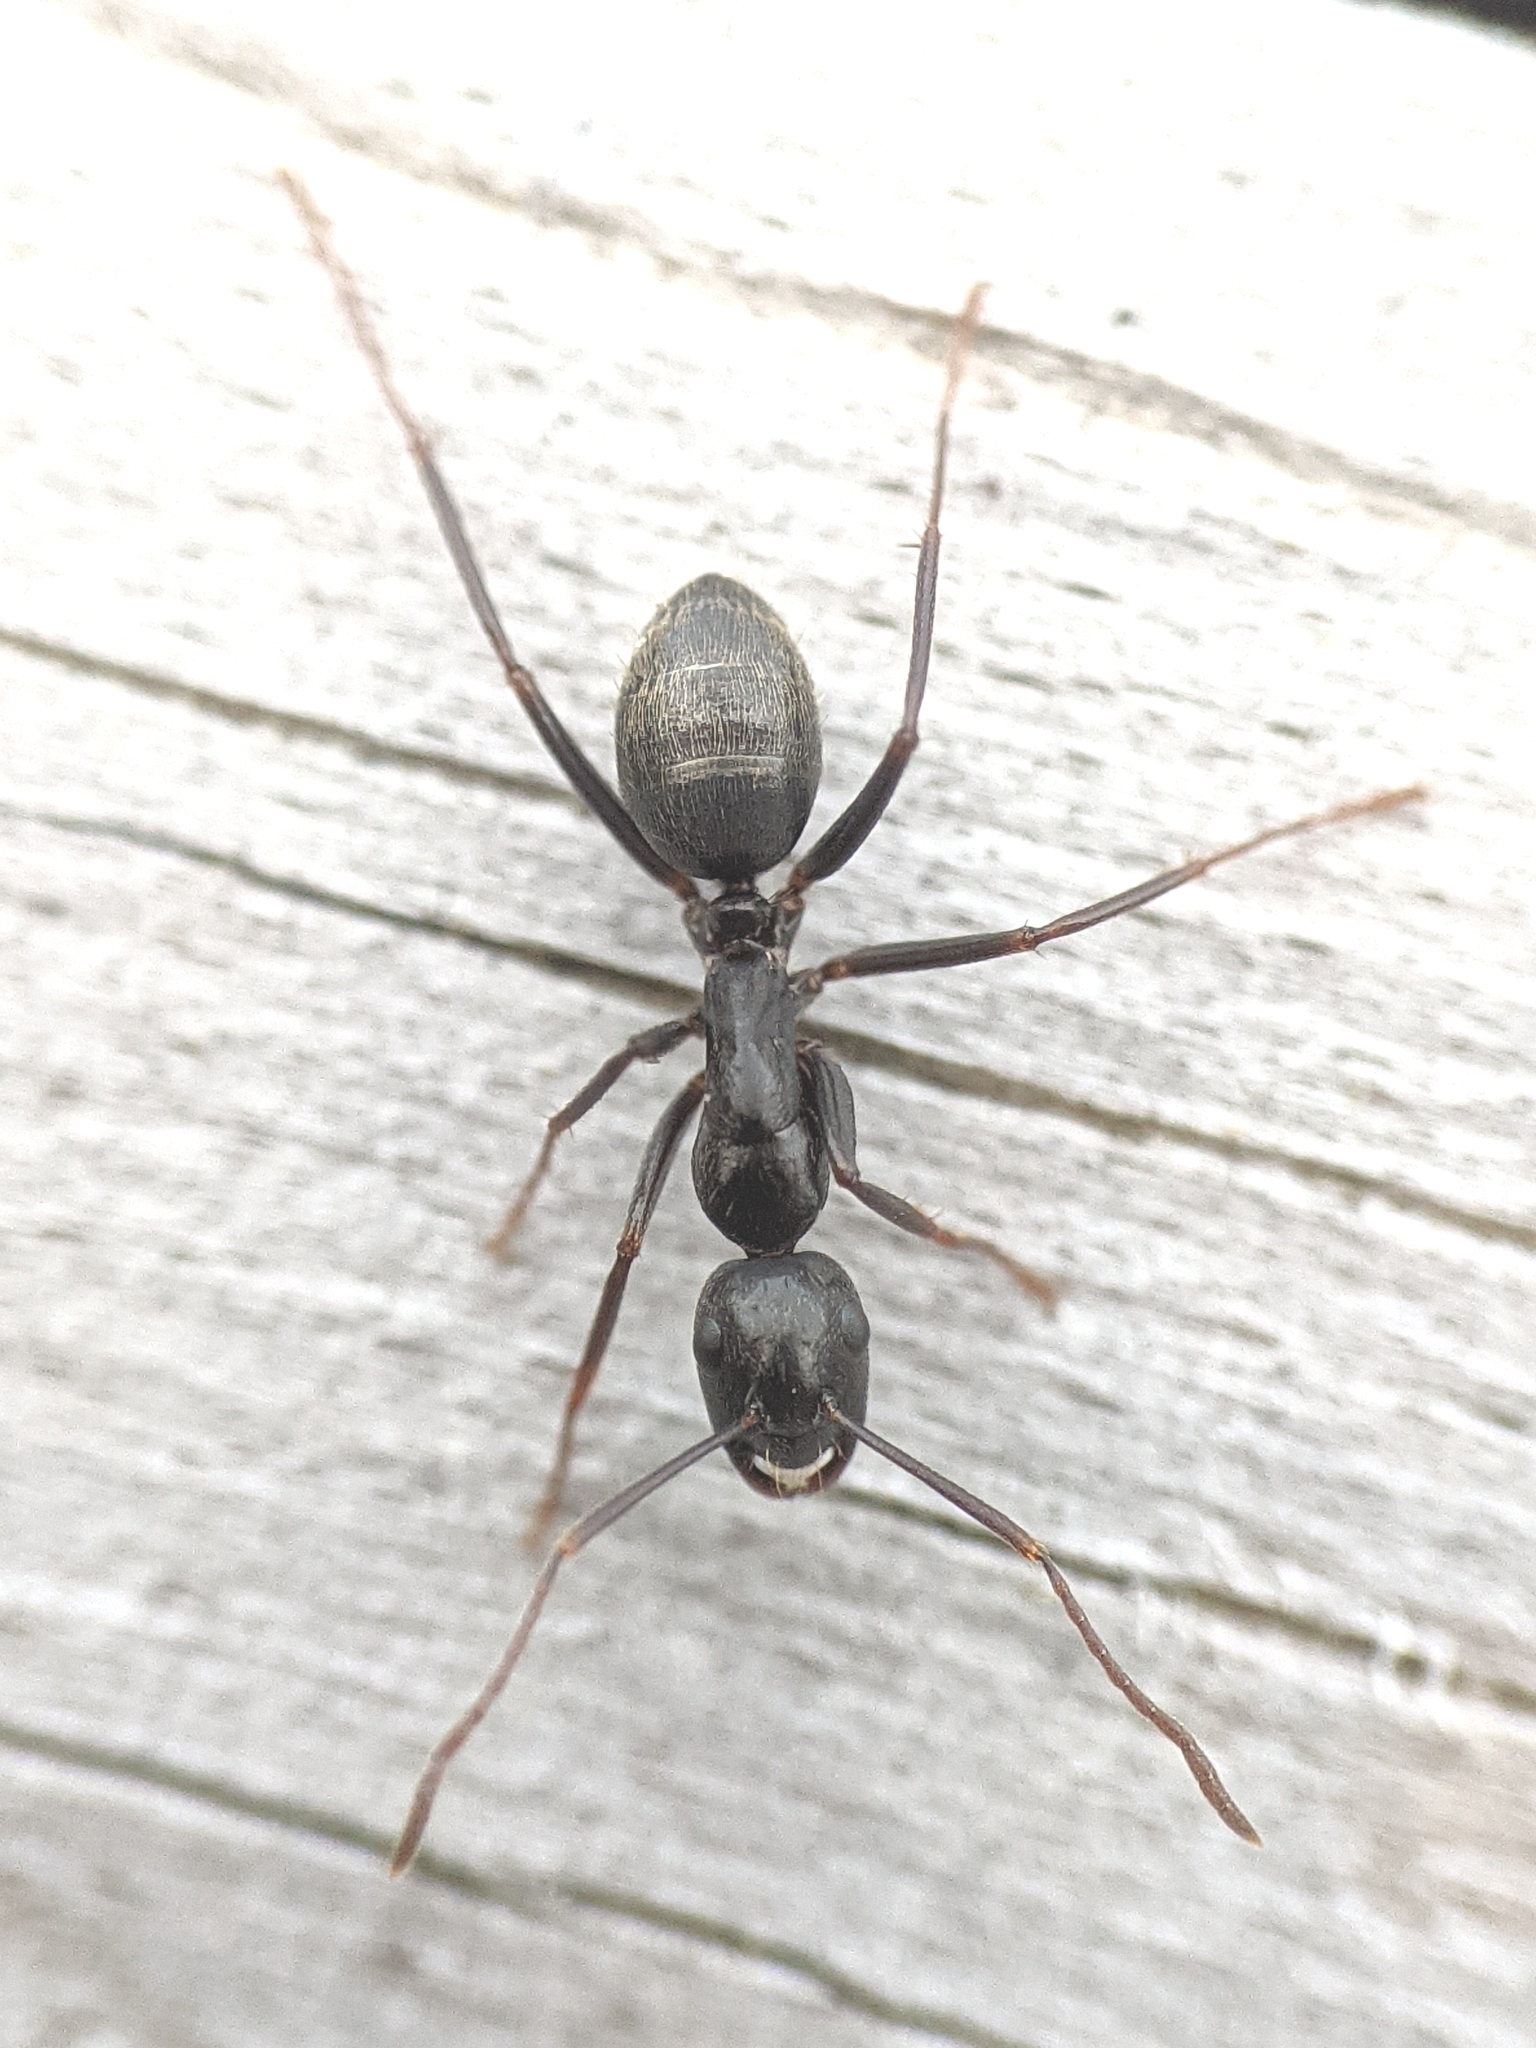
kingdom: Animalia
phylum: Arthropoda
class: Insecta
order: Hymenoptera
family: Formicidae
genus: Camponotus
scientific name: Camponotus pennsylvanicus
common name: Black carpenter ant
